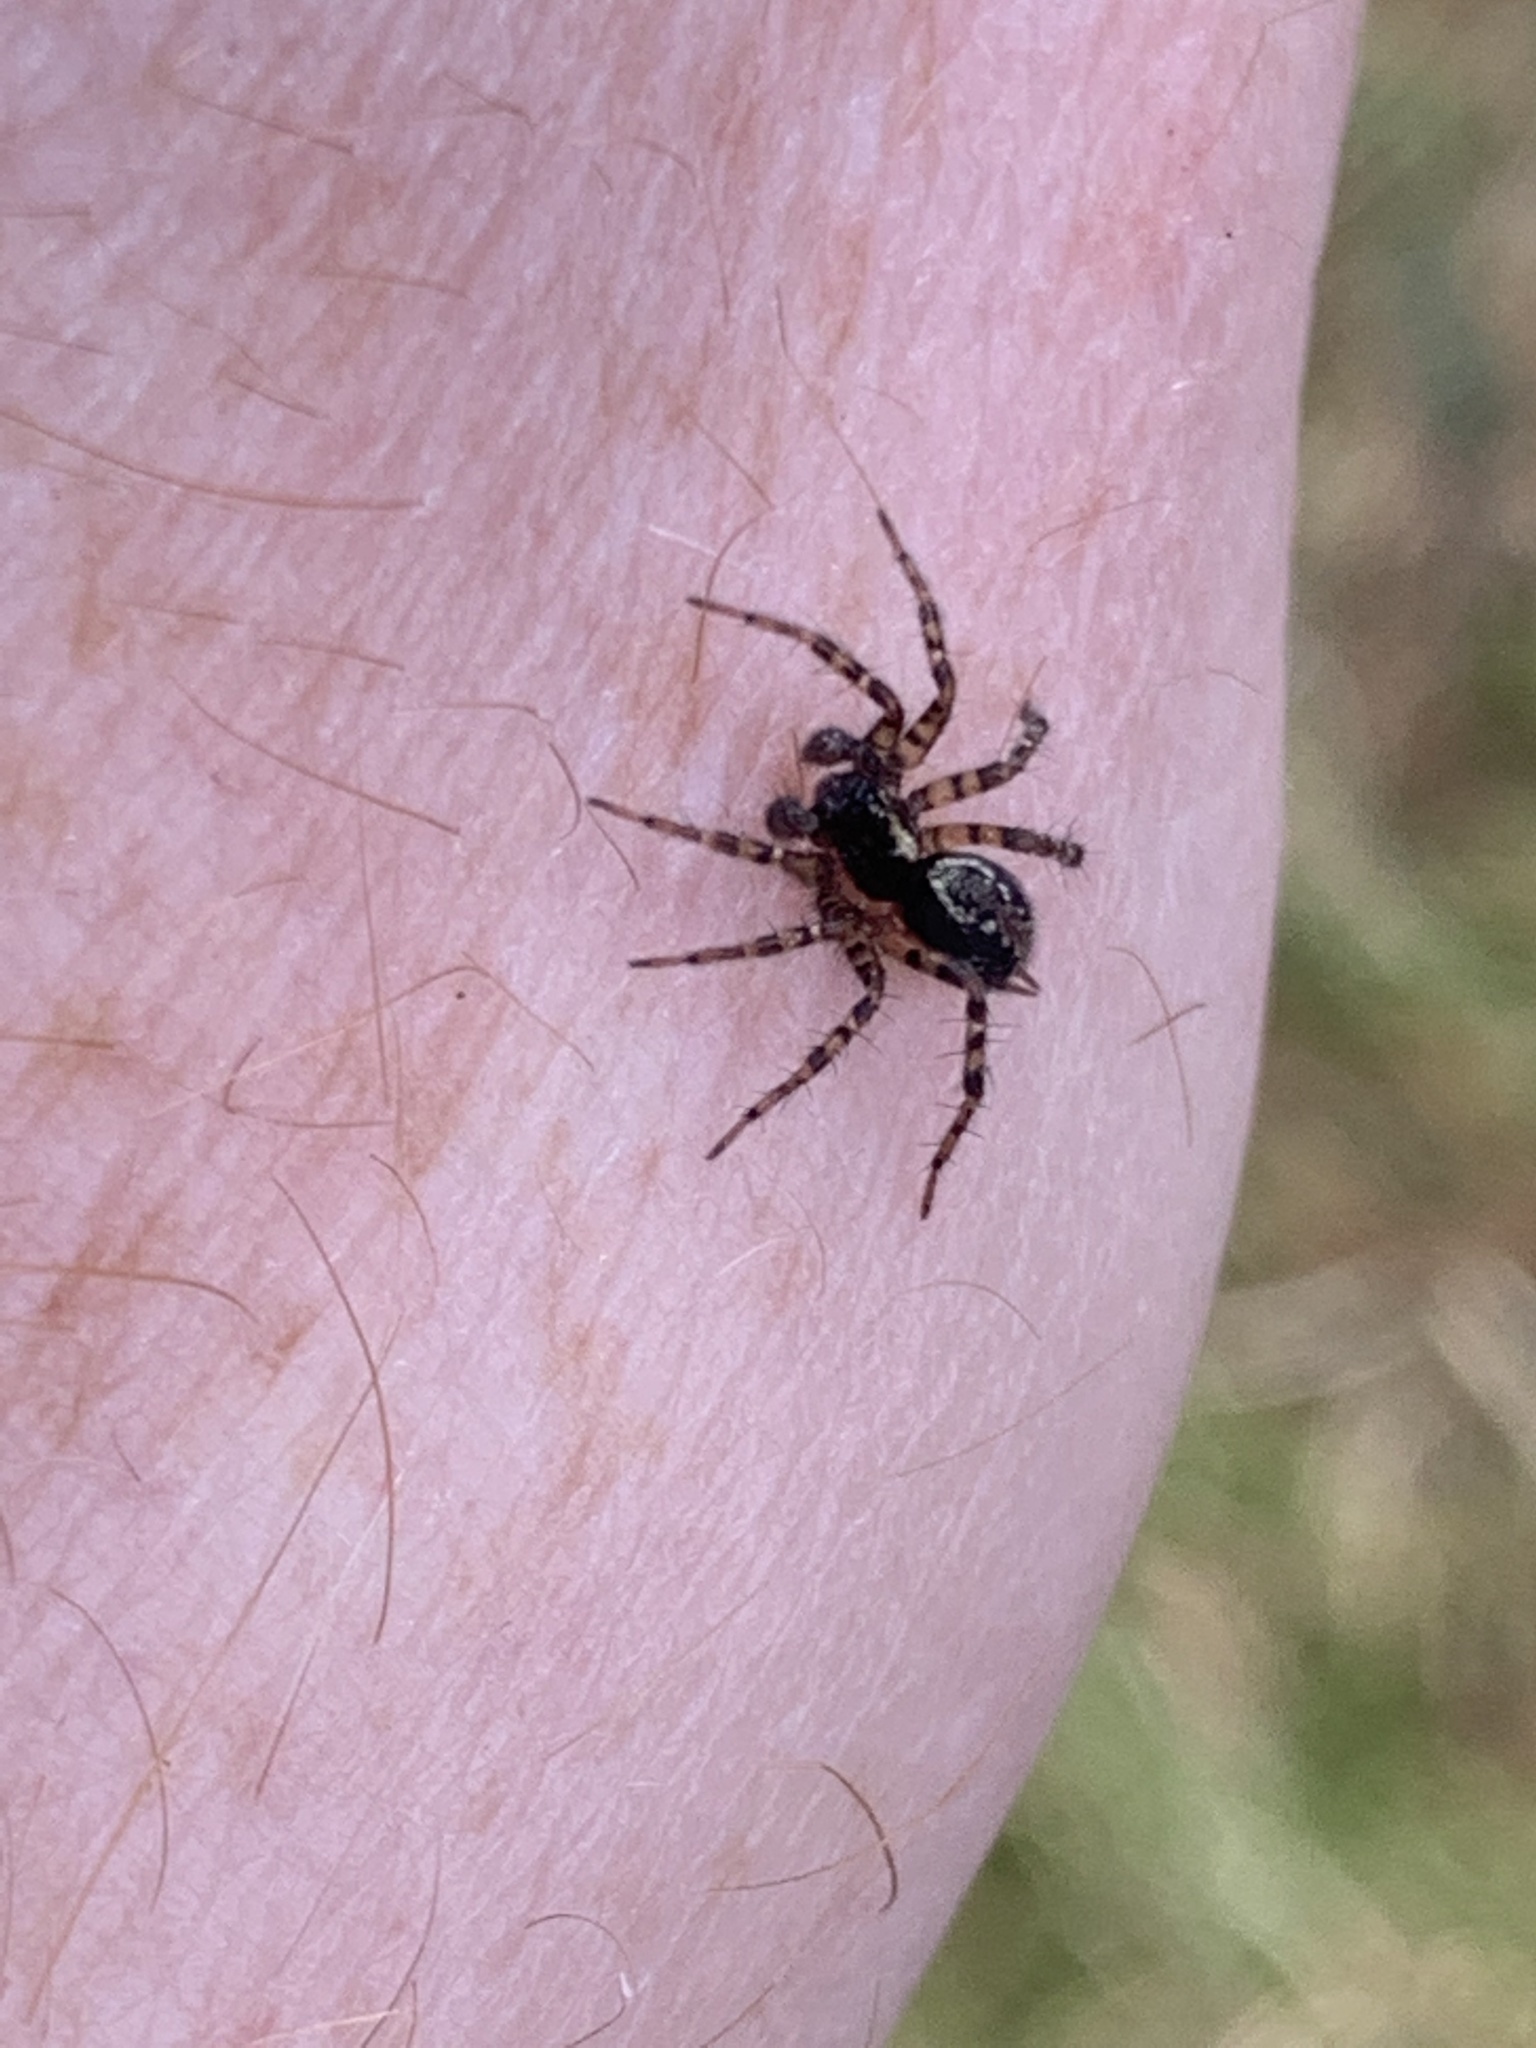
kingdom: Animalia
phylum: Arthropoda
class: Arachnida
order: Araneae
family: Agelenidae
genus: Textrix
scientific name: Textrix denticulata
